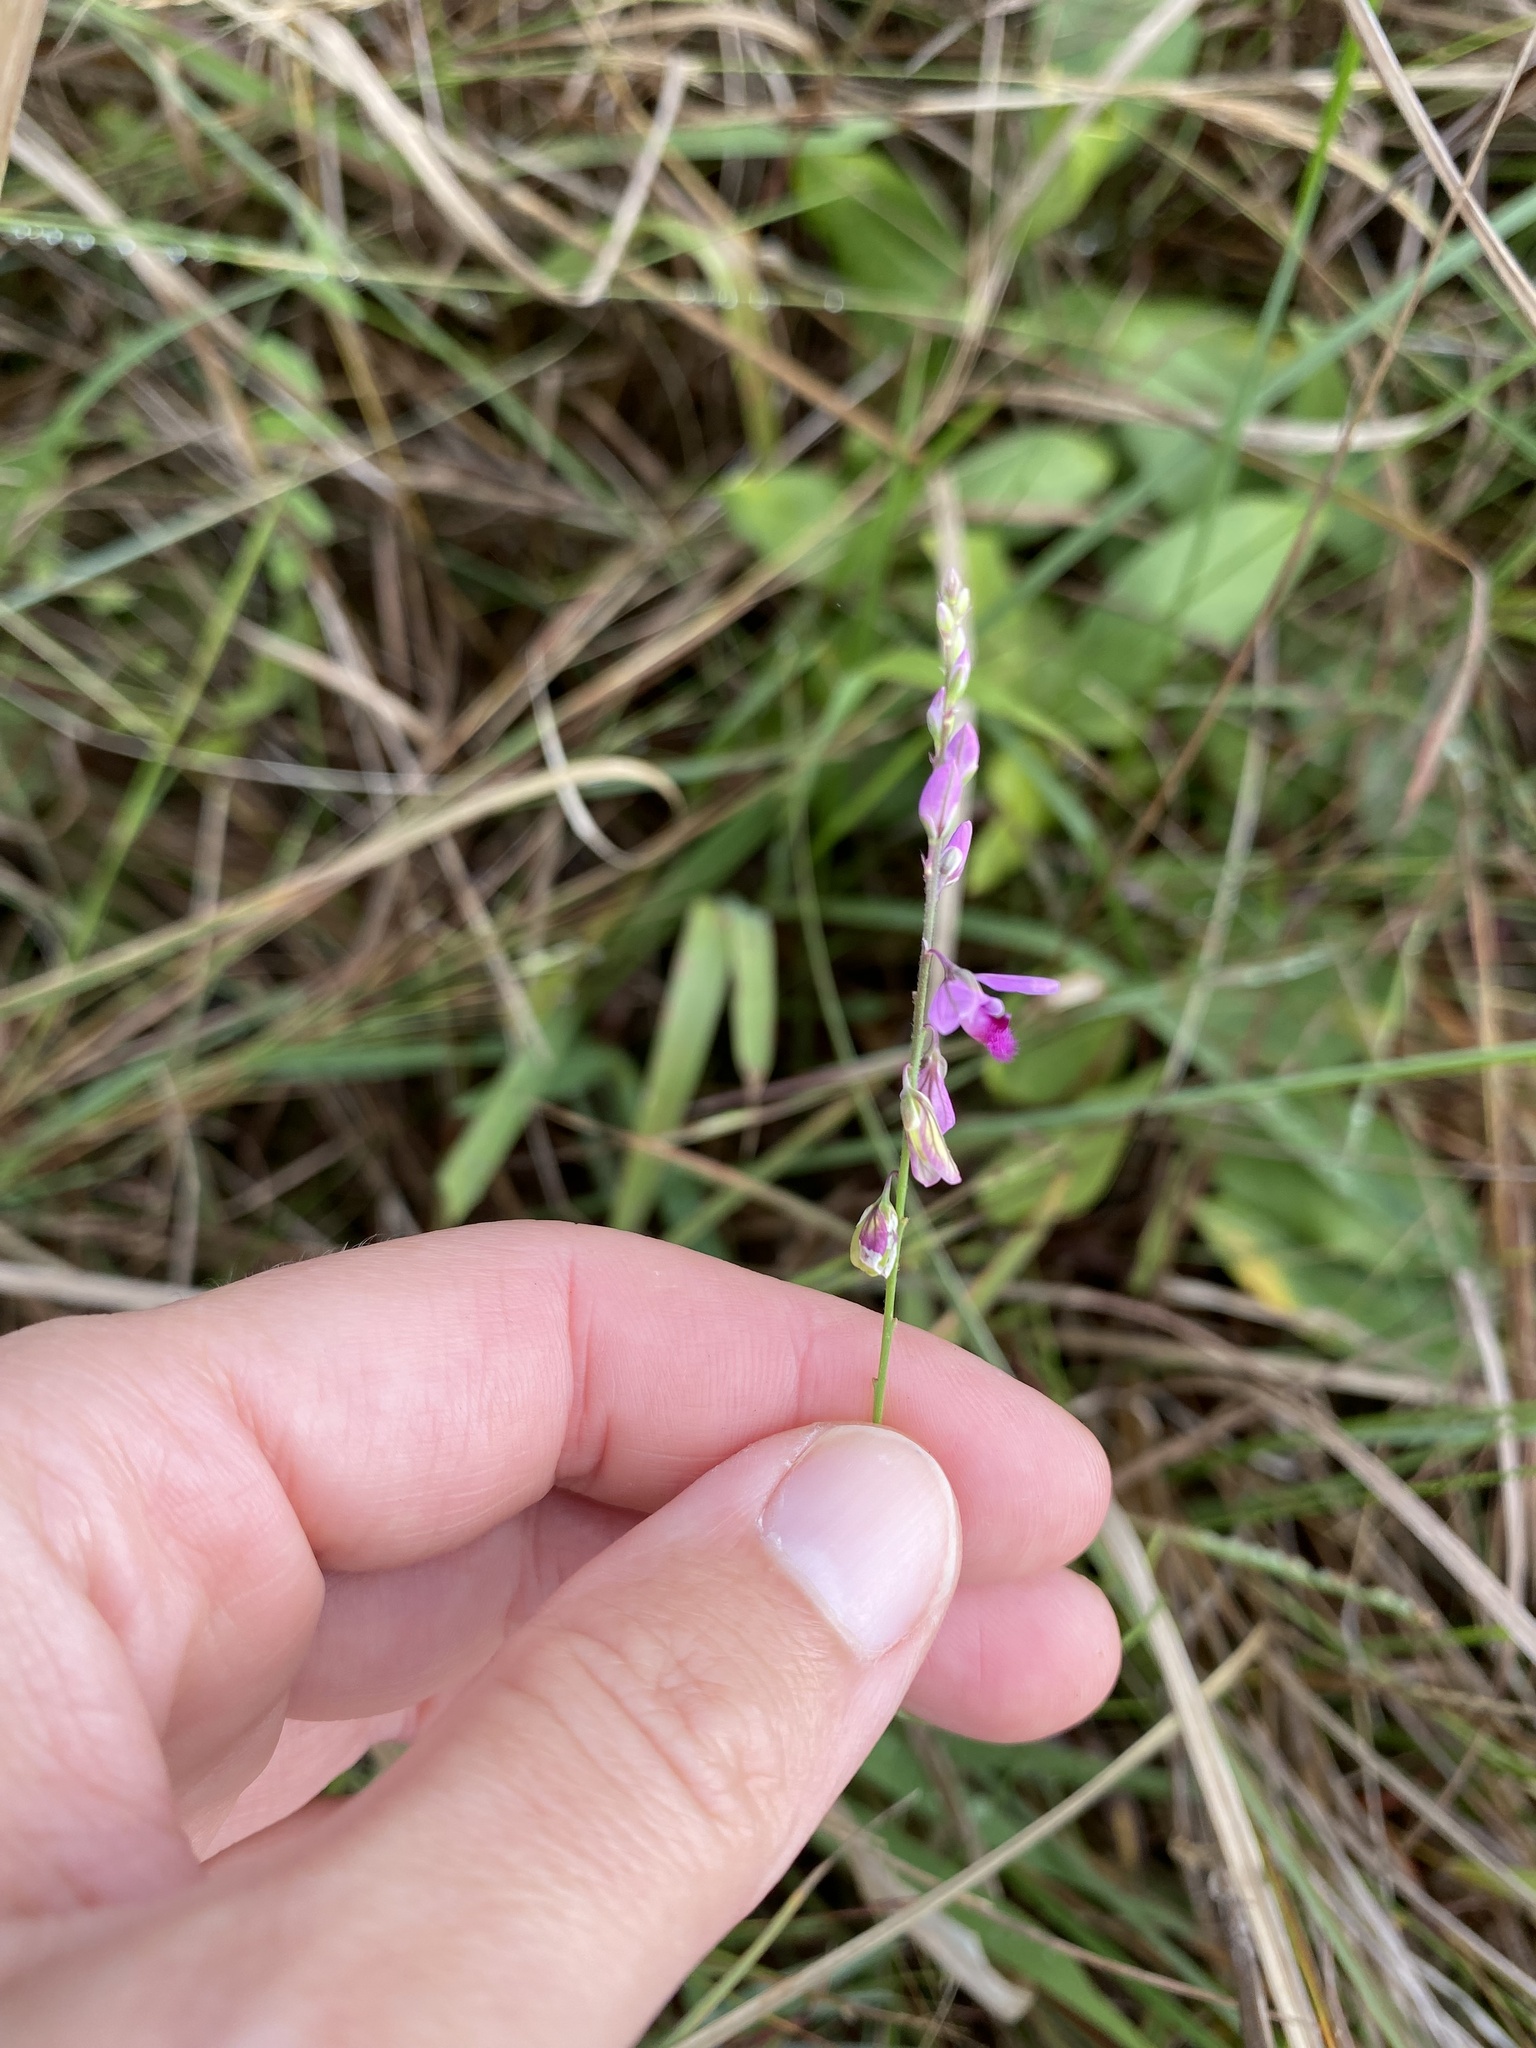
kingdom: Plantae
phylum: Tracheophyta
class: Magnoliopsida
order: Fabales
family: Polygalaceae
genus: Polygala
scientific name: Polygala hottentotta
